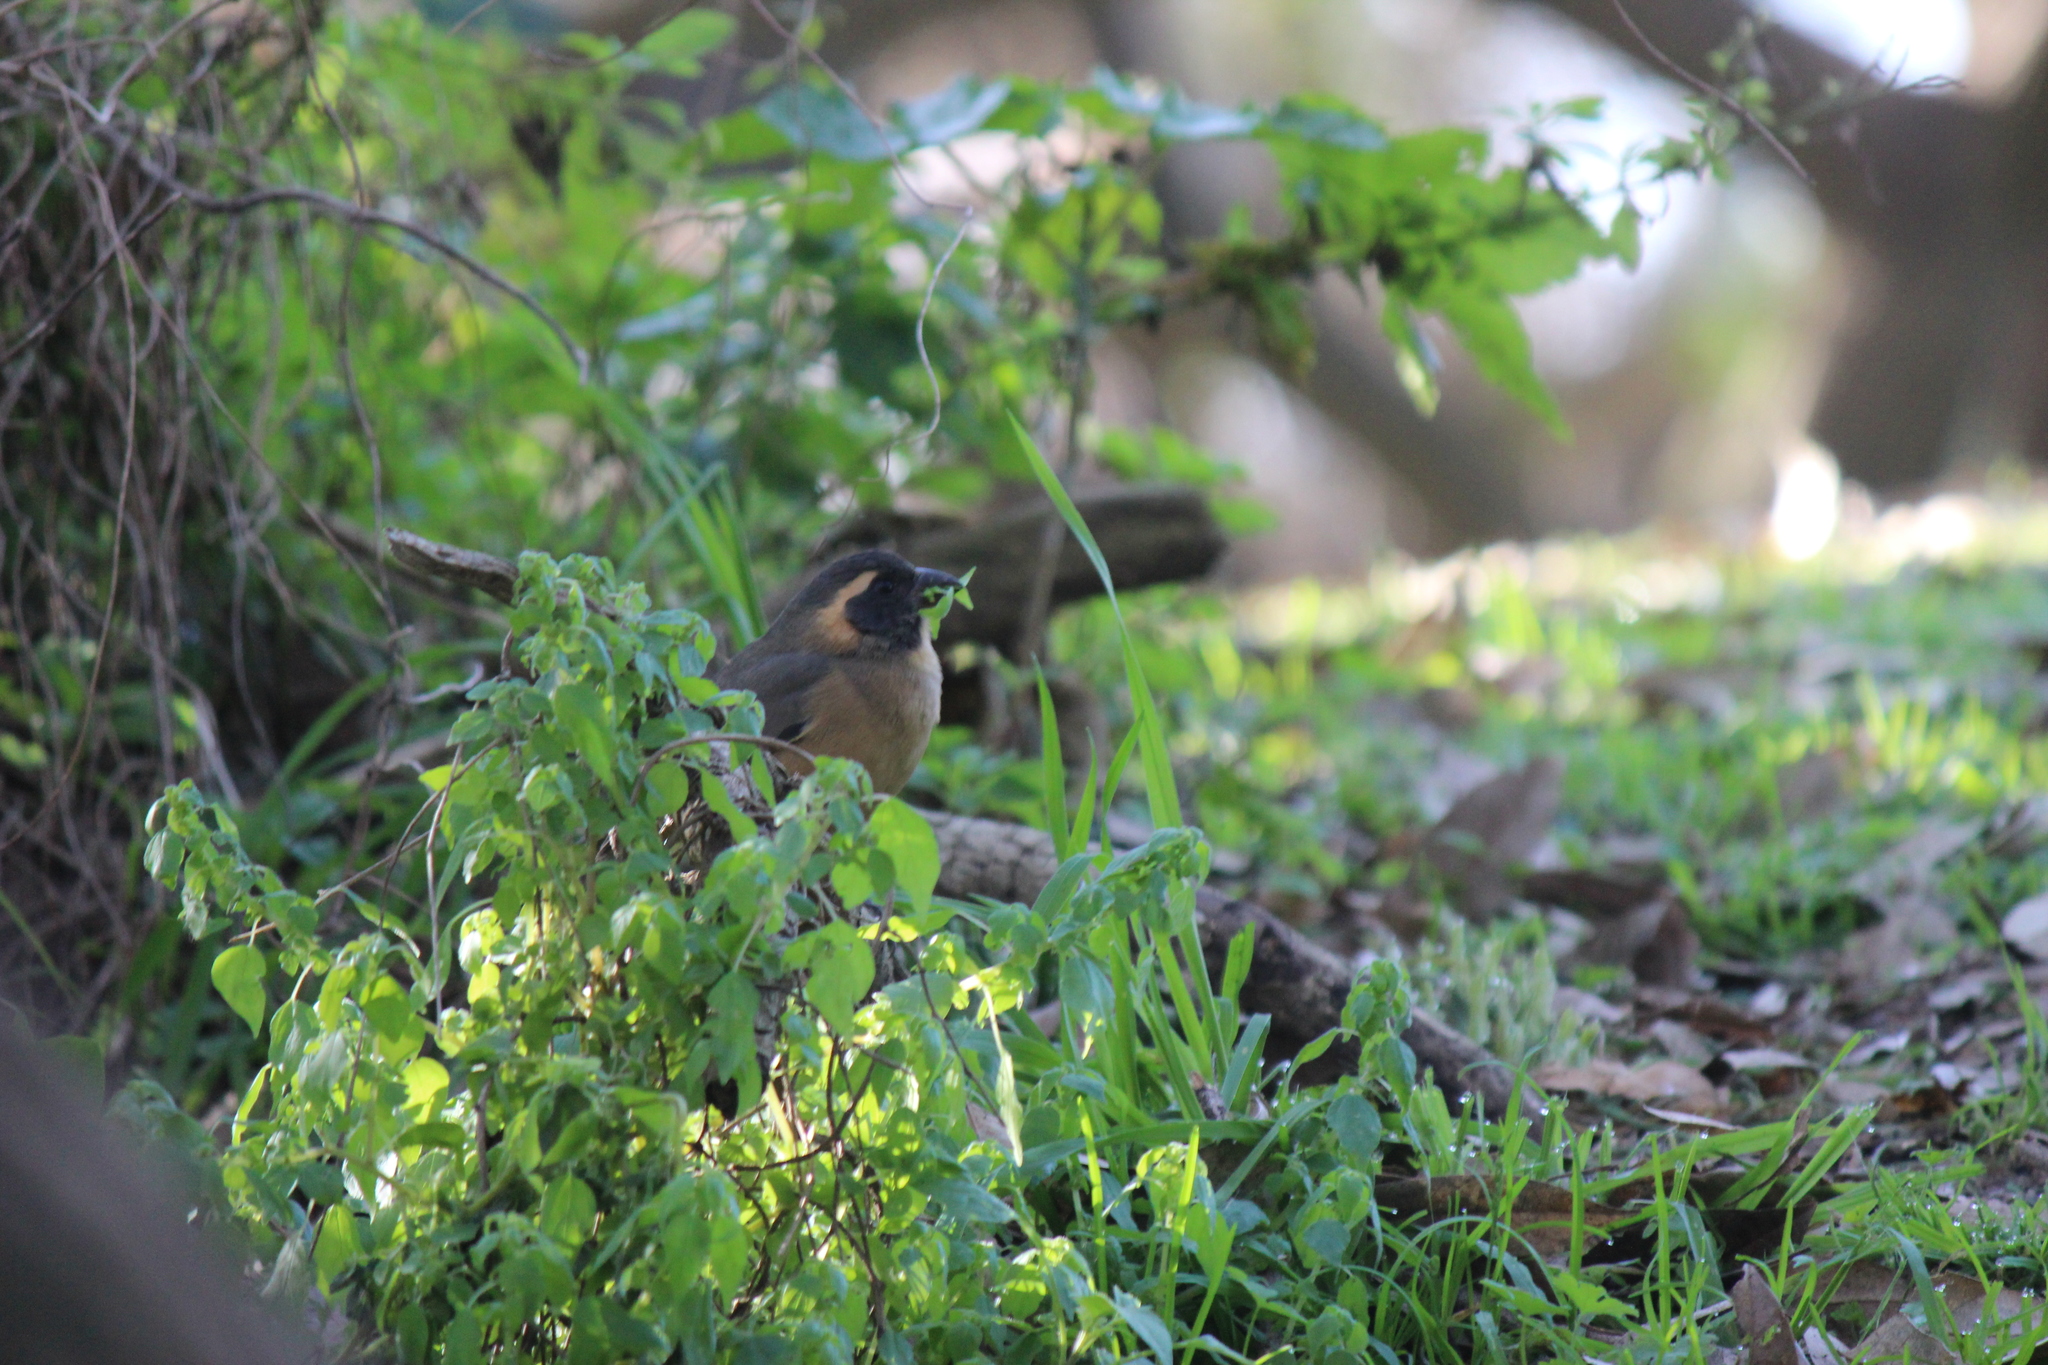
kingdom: Animalia
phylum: Chordata
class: Aves
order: Passeriformes
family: Thraupidae
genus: Saltator
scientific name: Saltator aurantiirostris
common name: Golden-billed saltator
